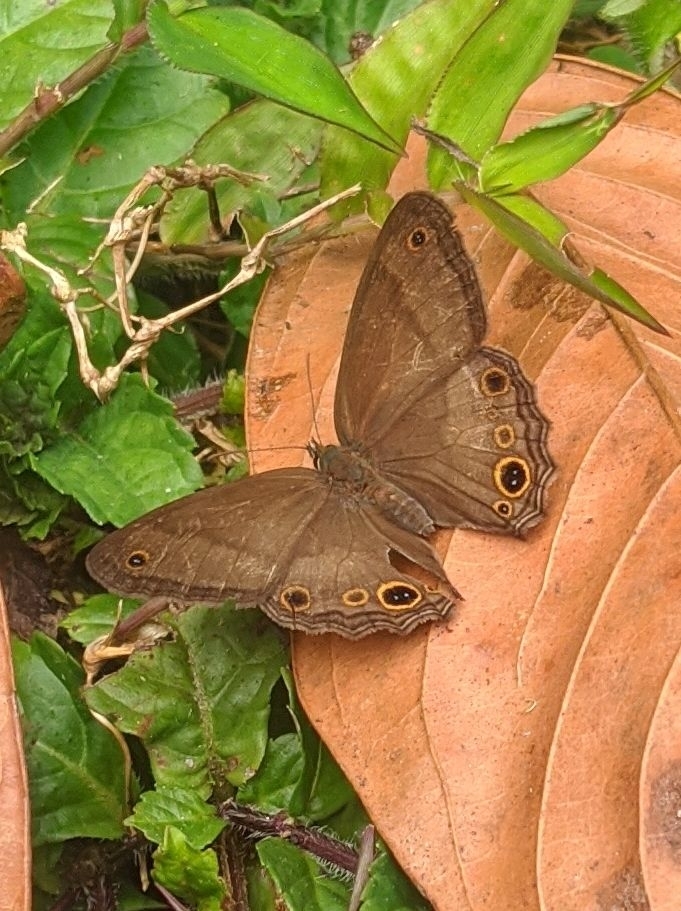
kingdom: Animalia
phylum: Arthropoda
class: Insecta
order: Lepidoptera
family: Nymphalidae
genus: Graphita
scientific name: Graphita griphe
